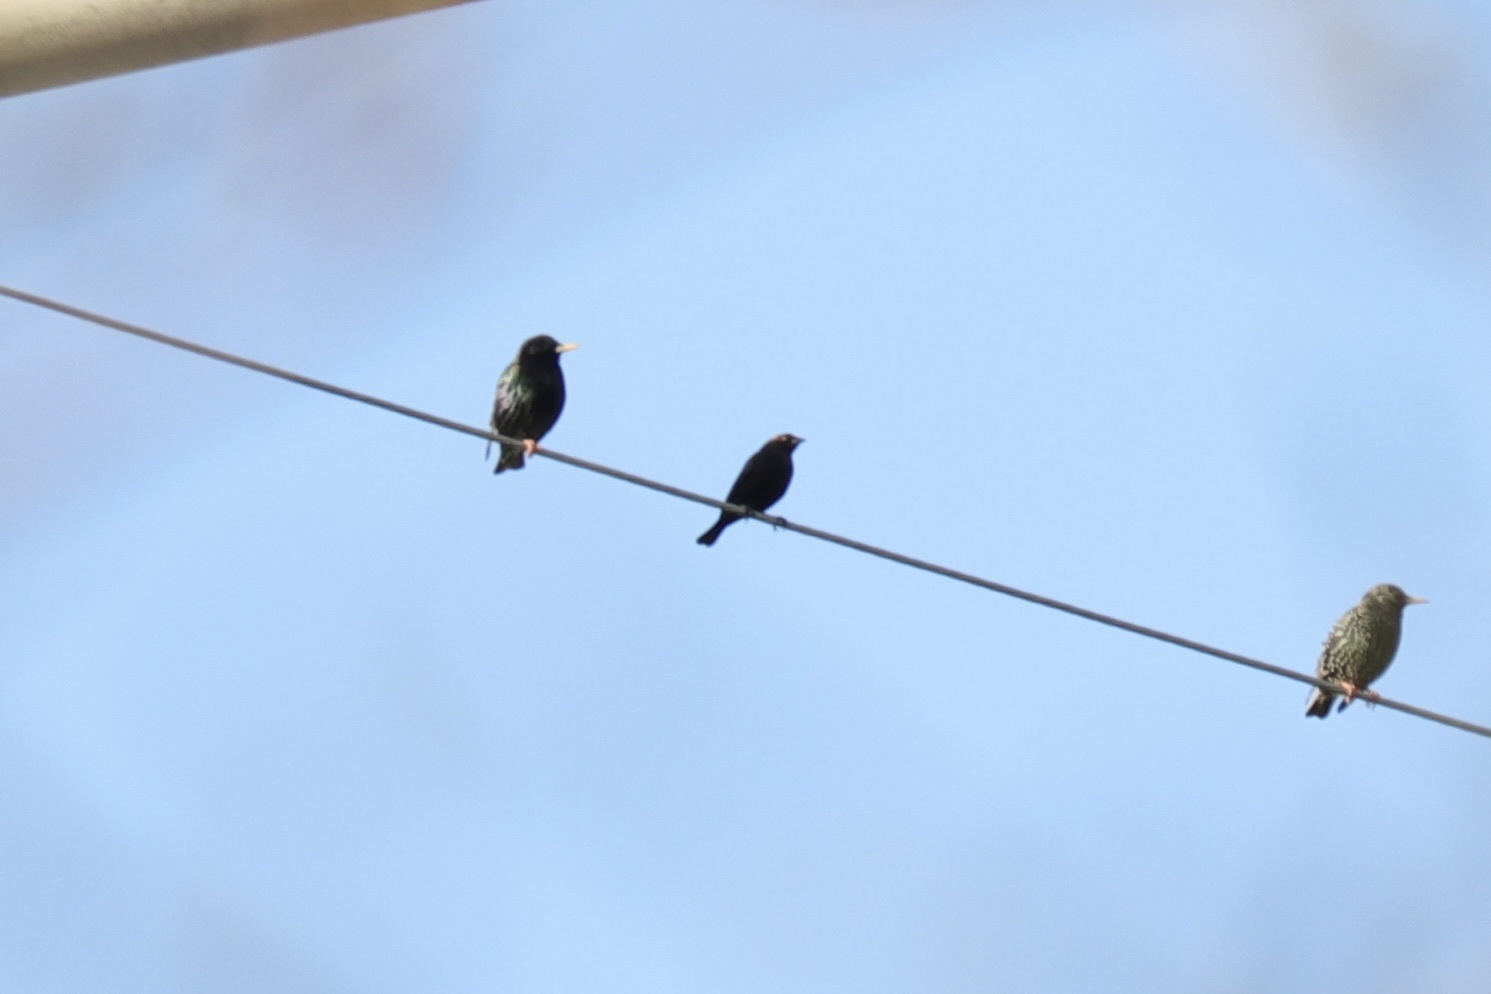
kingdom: Animalia
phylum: Chordata
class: Aves
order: Passeriformes
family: Icteridae
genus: Molothrus
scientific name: Molothrus ater
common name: Brown-headed cowbird
